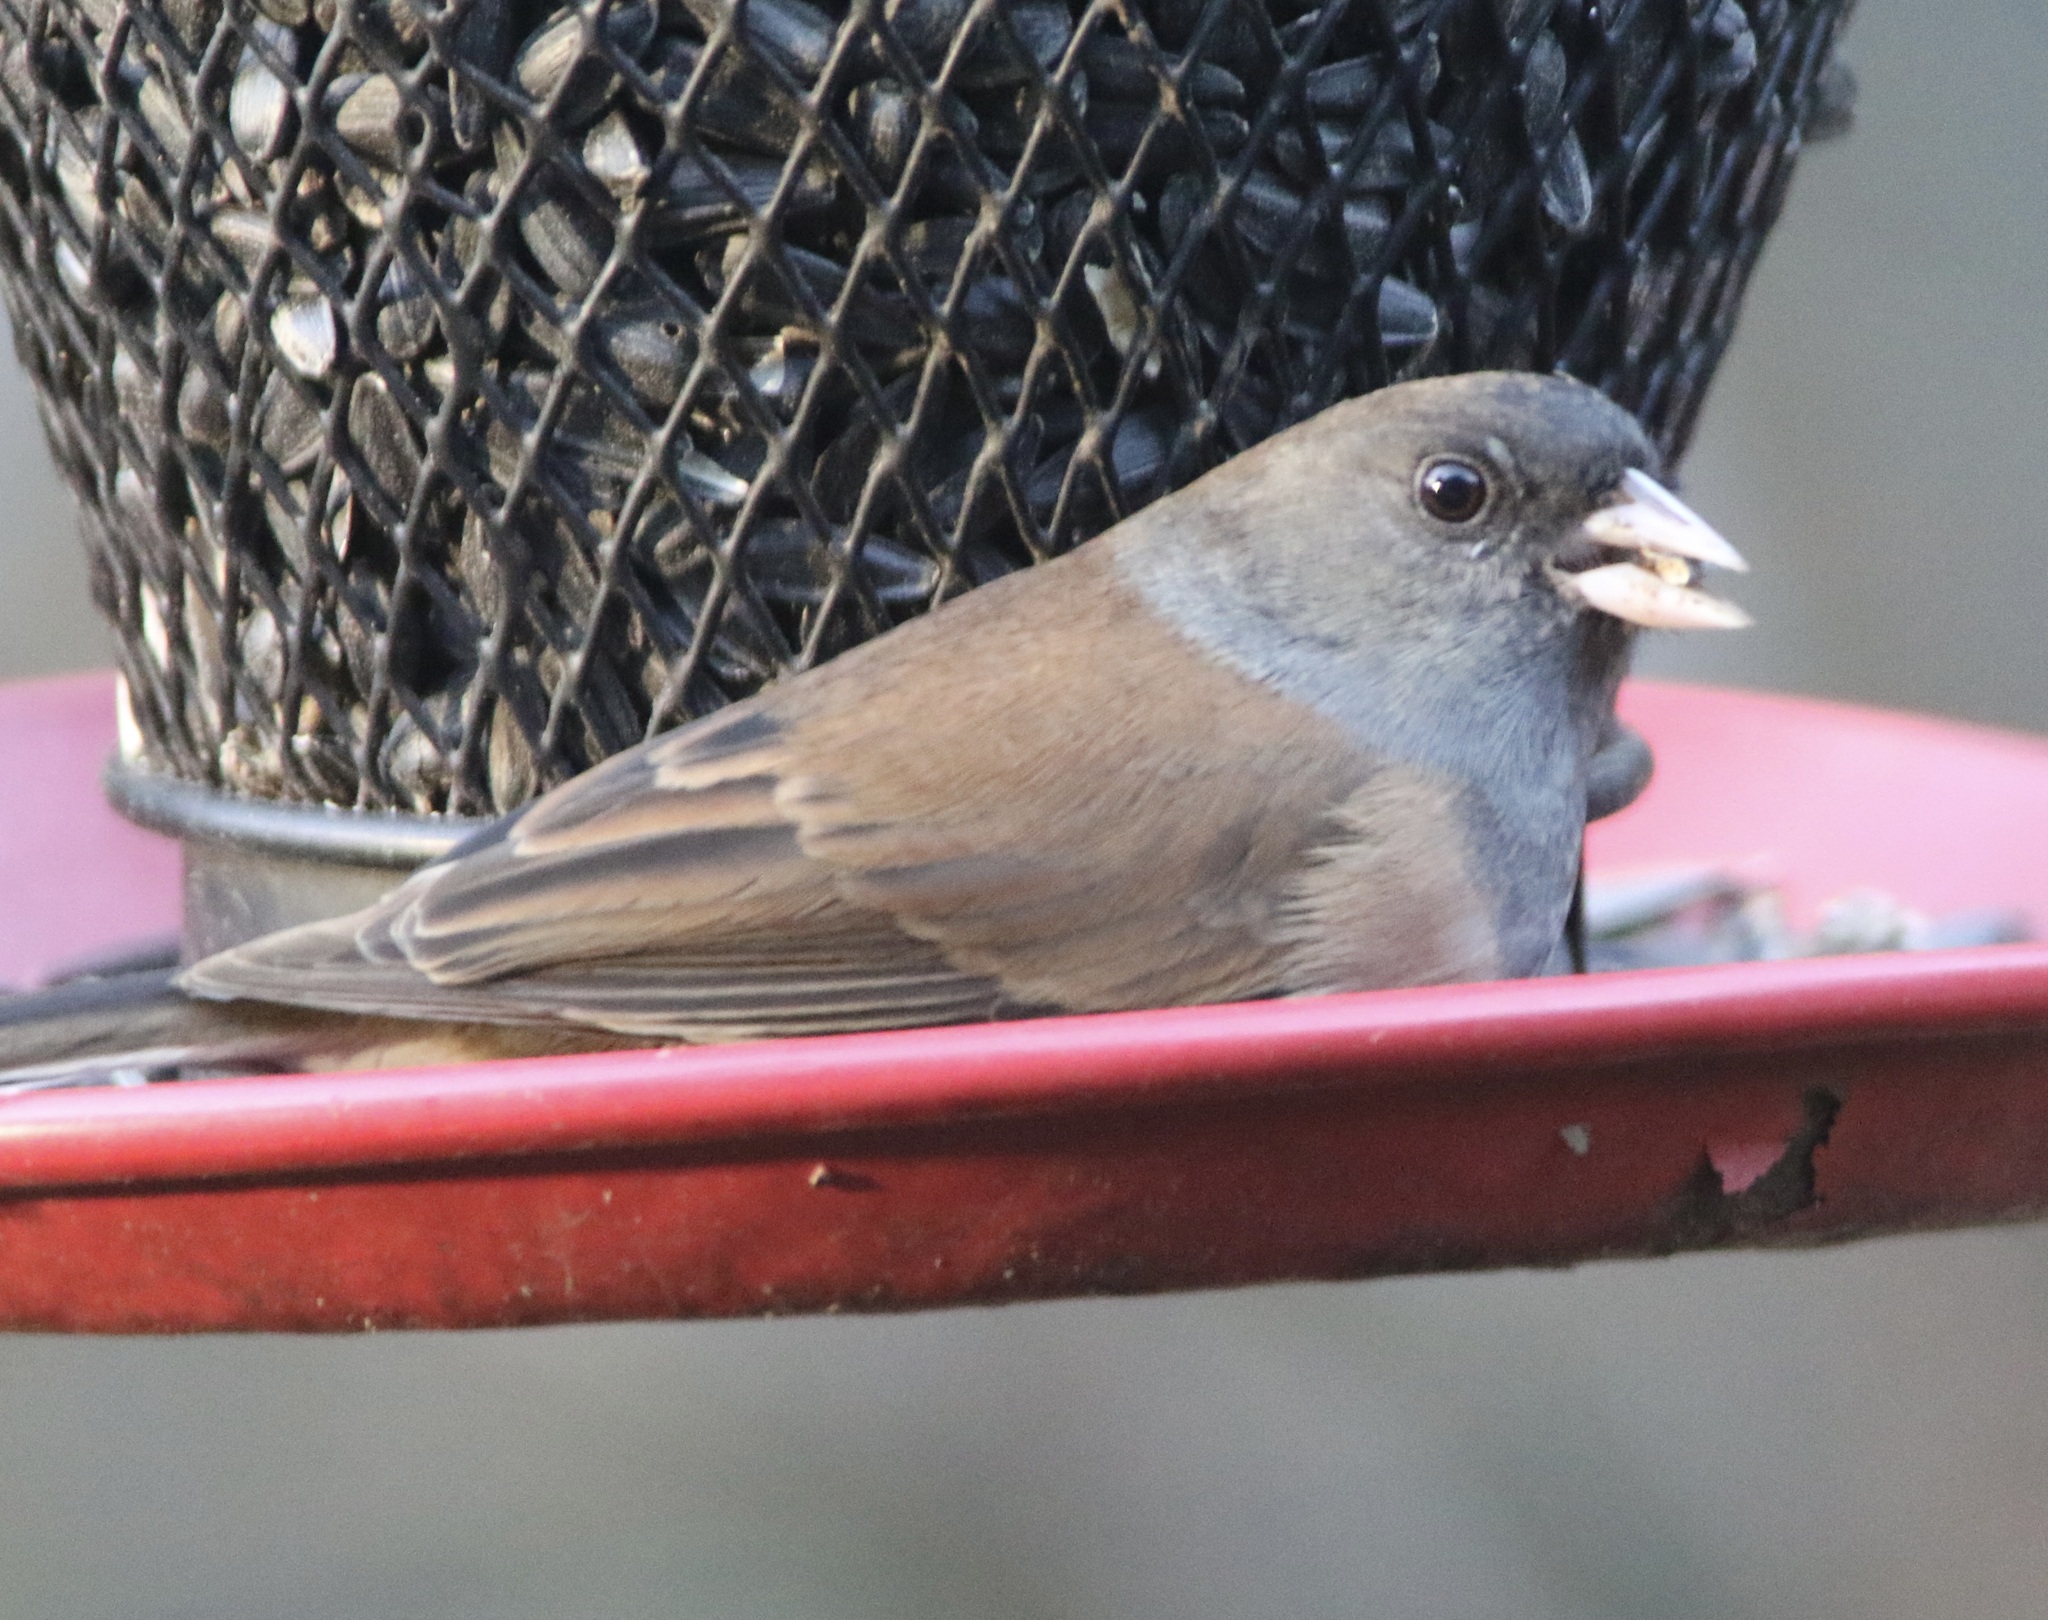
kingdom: Animalia
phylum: Chordata
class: Aves
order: Passeriformes
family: Passerellidae
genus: Junco
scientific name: Junco hyemalis
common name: Dark-eyed junco
